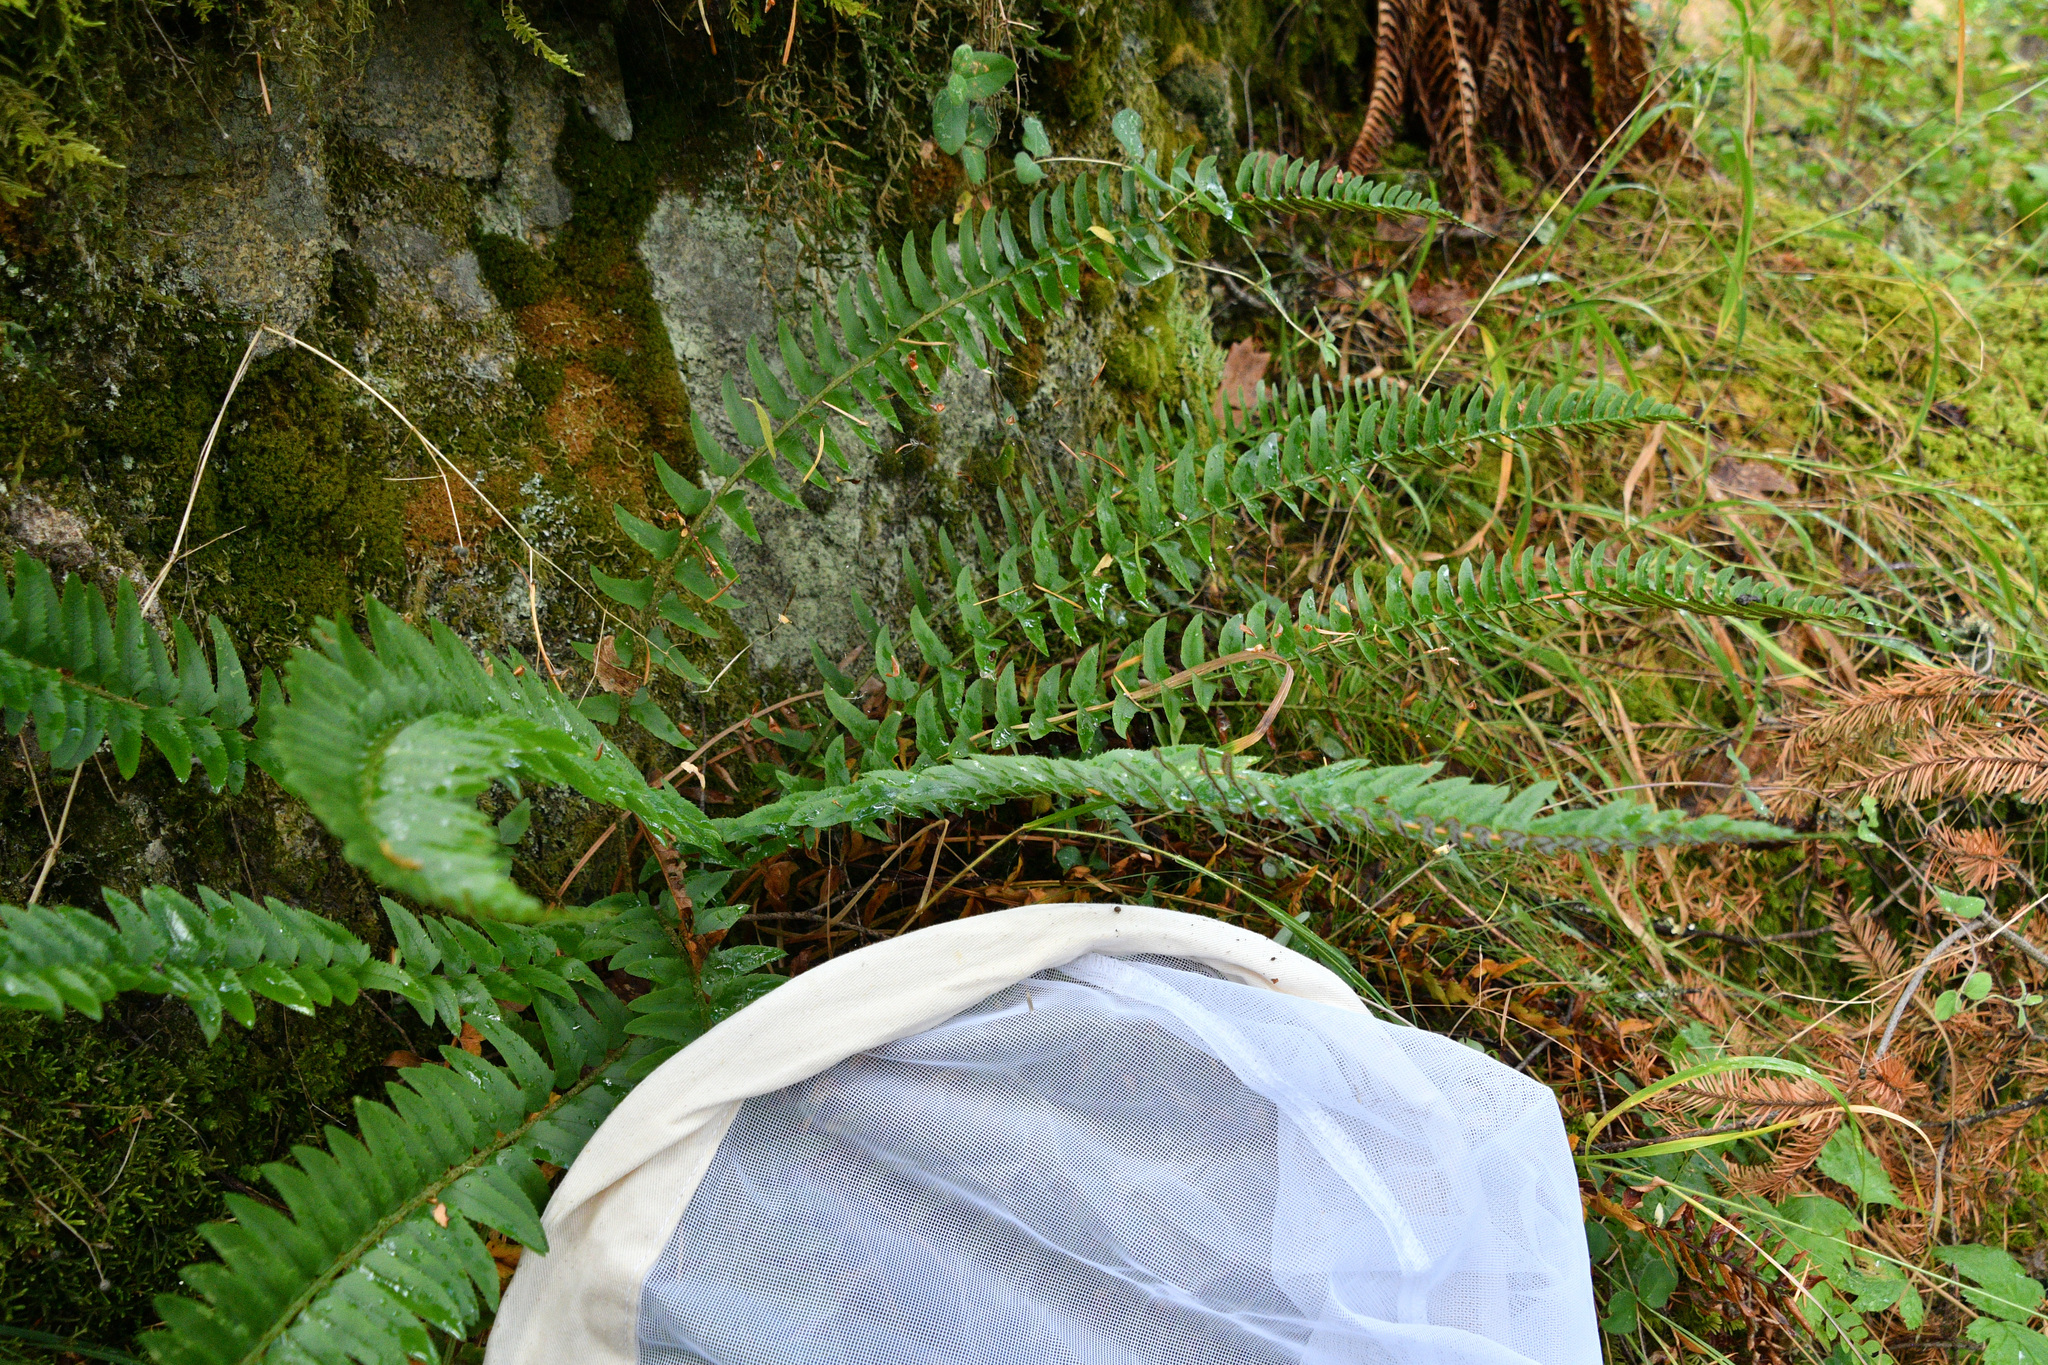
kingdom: Plantae
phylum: Tracheophyta
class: Polypodiopsida
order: Polypodiales
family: Dryopteridaceae
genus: Polystichum
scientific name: Polystichum imbricans
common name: Dwarf western sword fern
